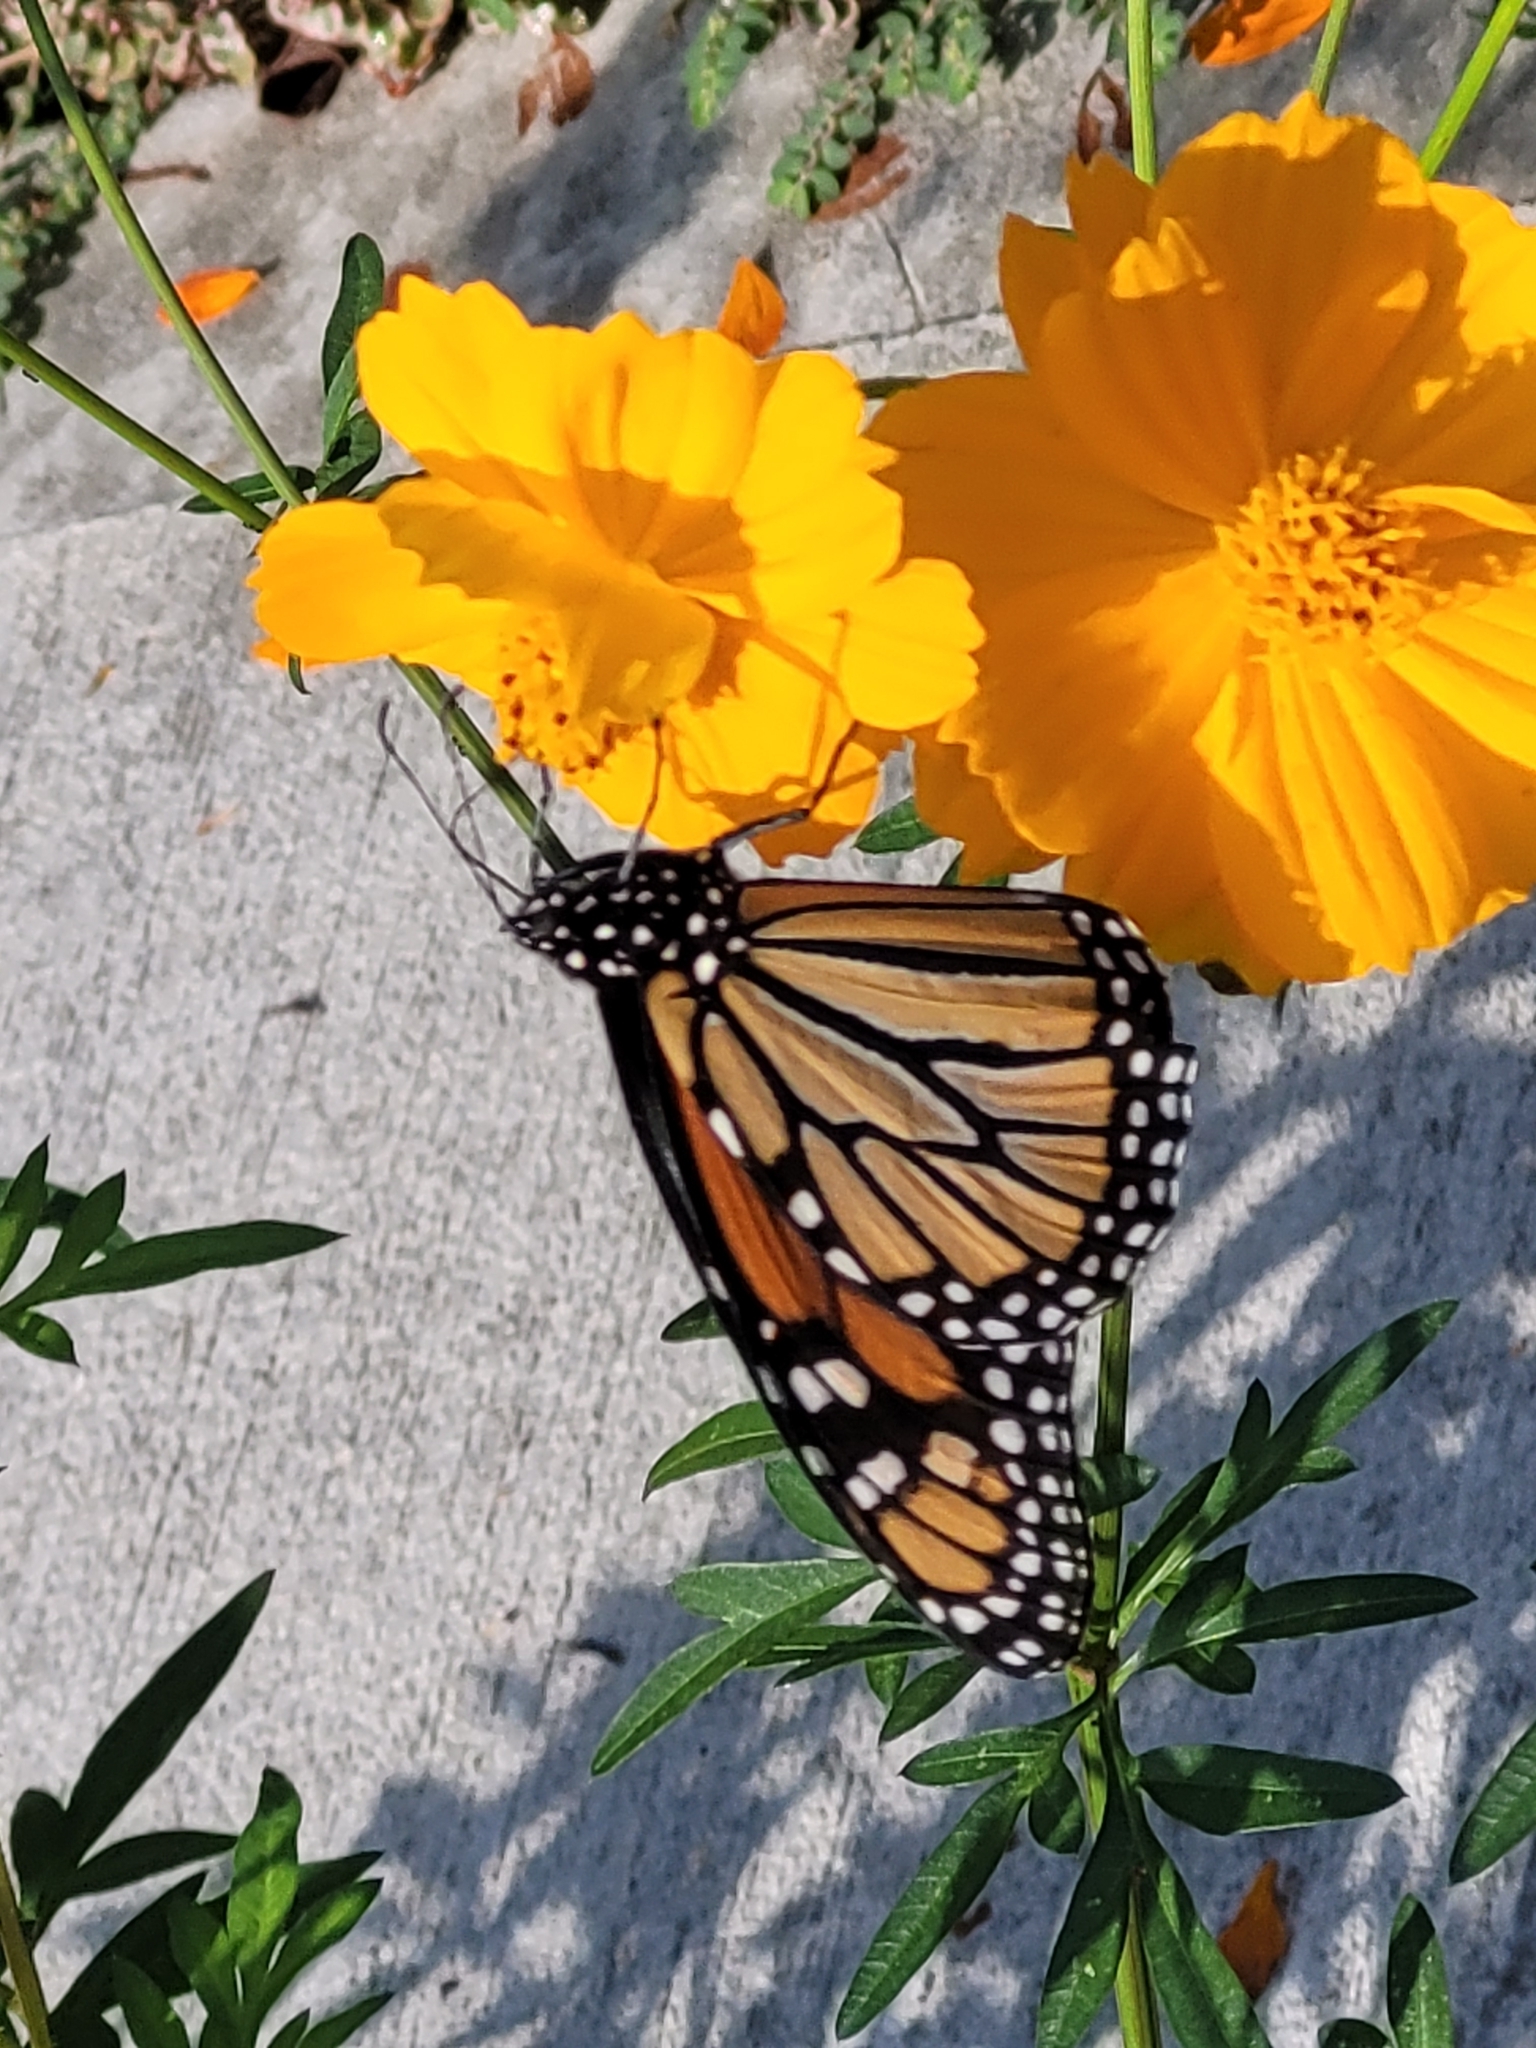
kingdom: Animalia
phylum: Arthropoda
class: Insecta
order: Lepidoptera
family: Nymphalidae
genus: Danaus
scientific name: Danaus plexippus
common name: Monarch
